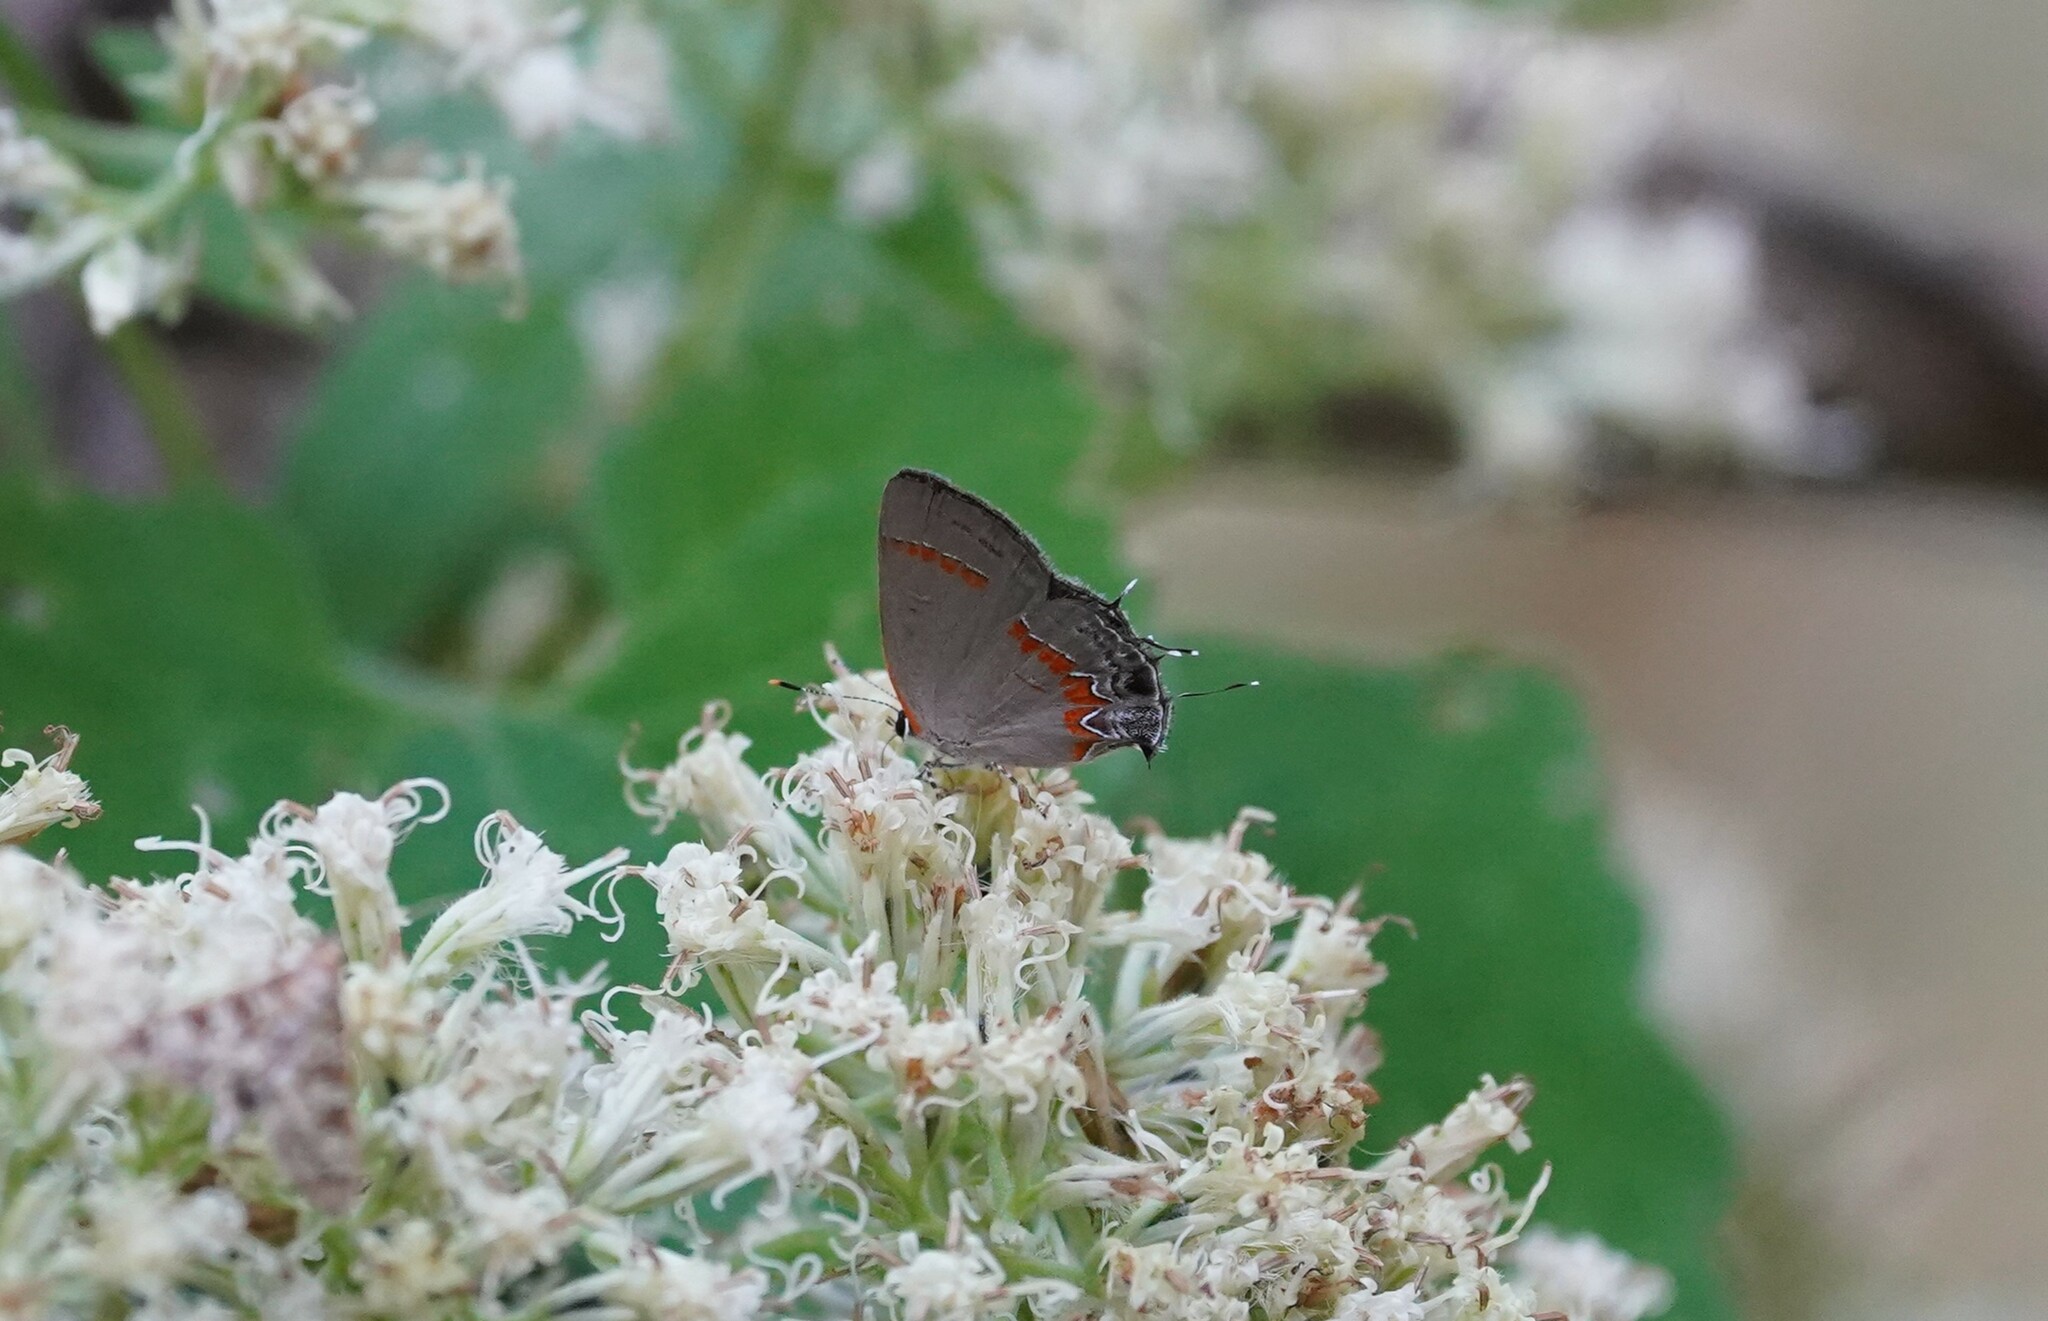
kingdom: Animalia
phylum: Arthropoda
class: Insecta
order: Lepidoptera
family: Lycaenidae
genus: Calycopis
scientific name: Calycopis cecrops
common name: Red-banded hairstreak
